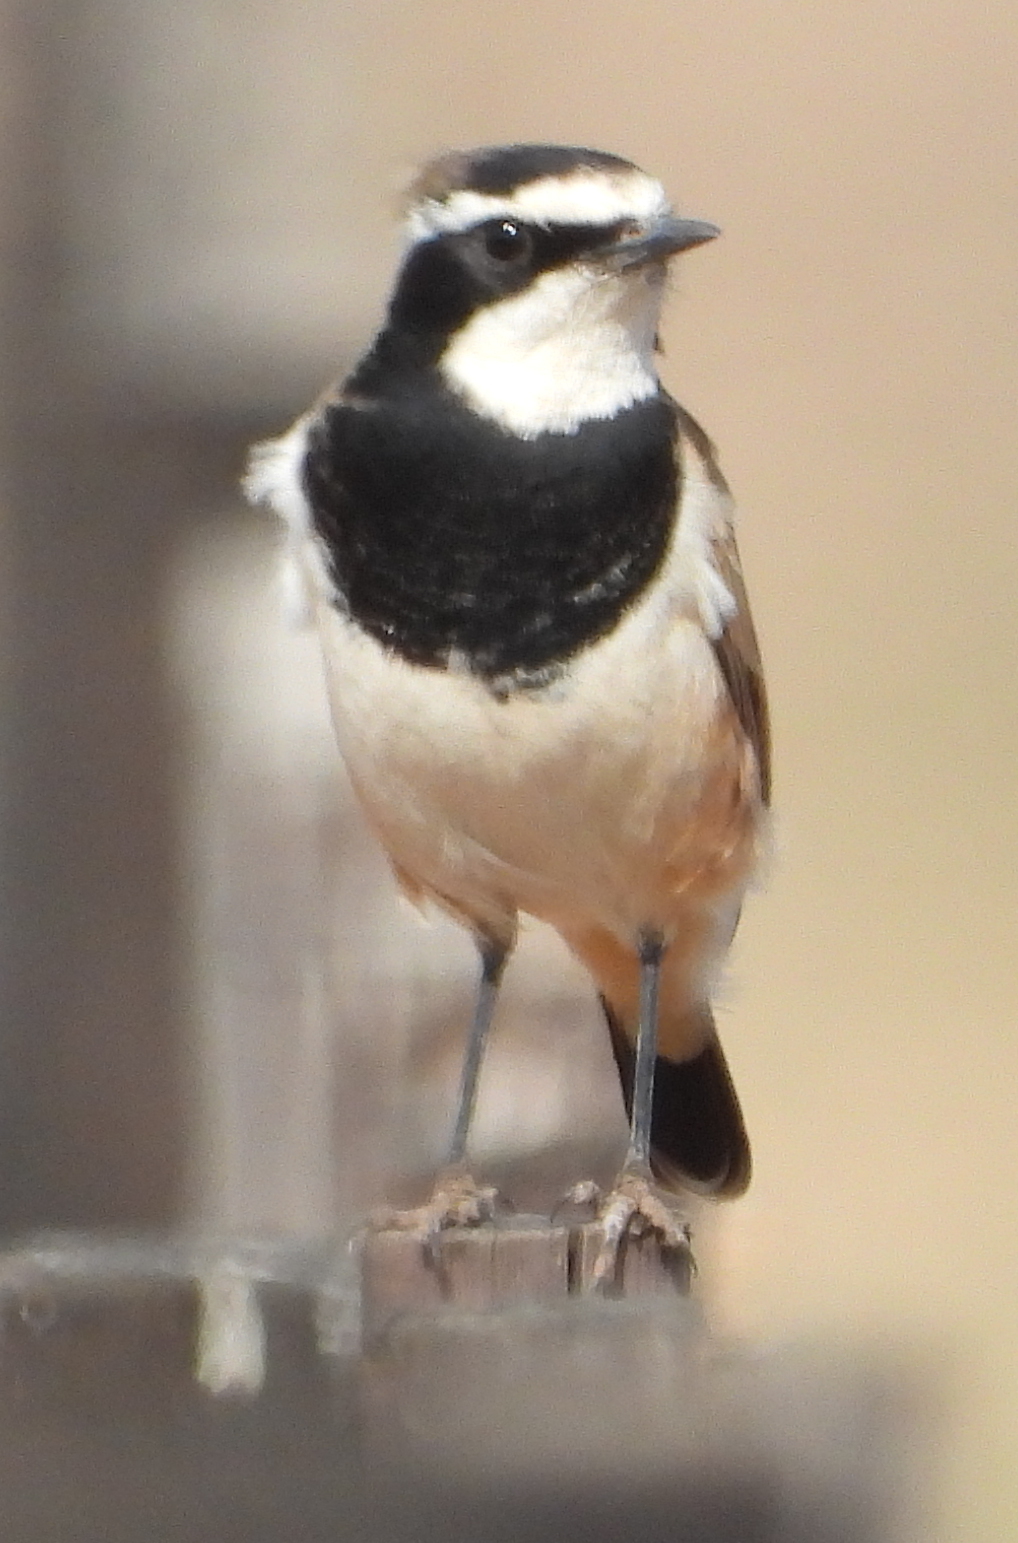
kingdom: Animalia
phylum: Chordata
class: Aves
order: Passeriformes
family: Muscicapidae
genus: Oenanthe
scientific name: Oenanthe pileata
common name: Capped wheatear
